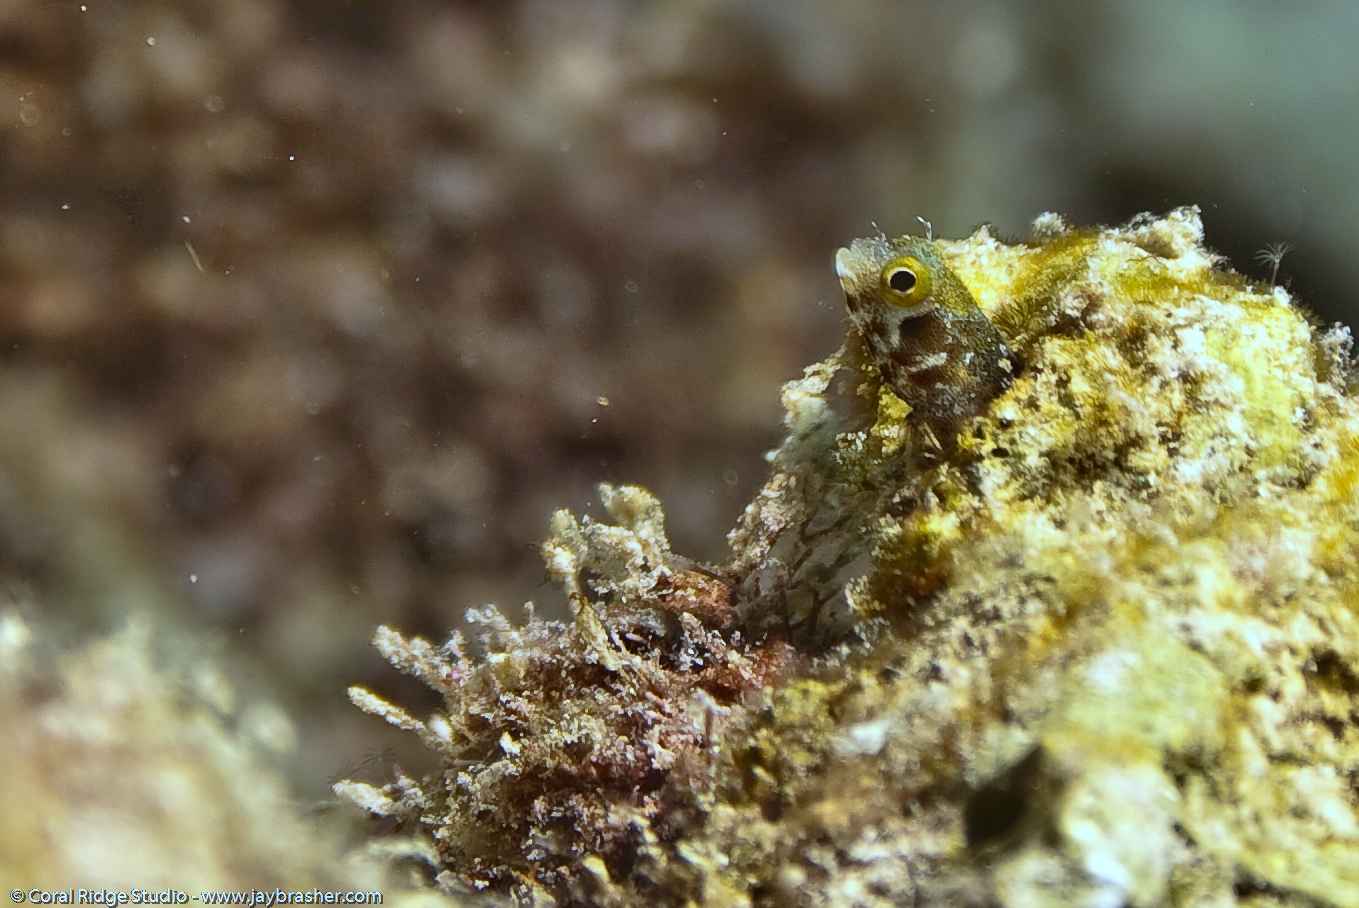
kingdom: Animalia
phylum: Chordata
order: Perciformes
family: Chaenopsidae
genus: Acanthemblemaria
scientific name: Acanthemblemaria spinosa
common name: Spinyhead blenny
